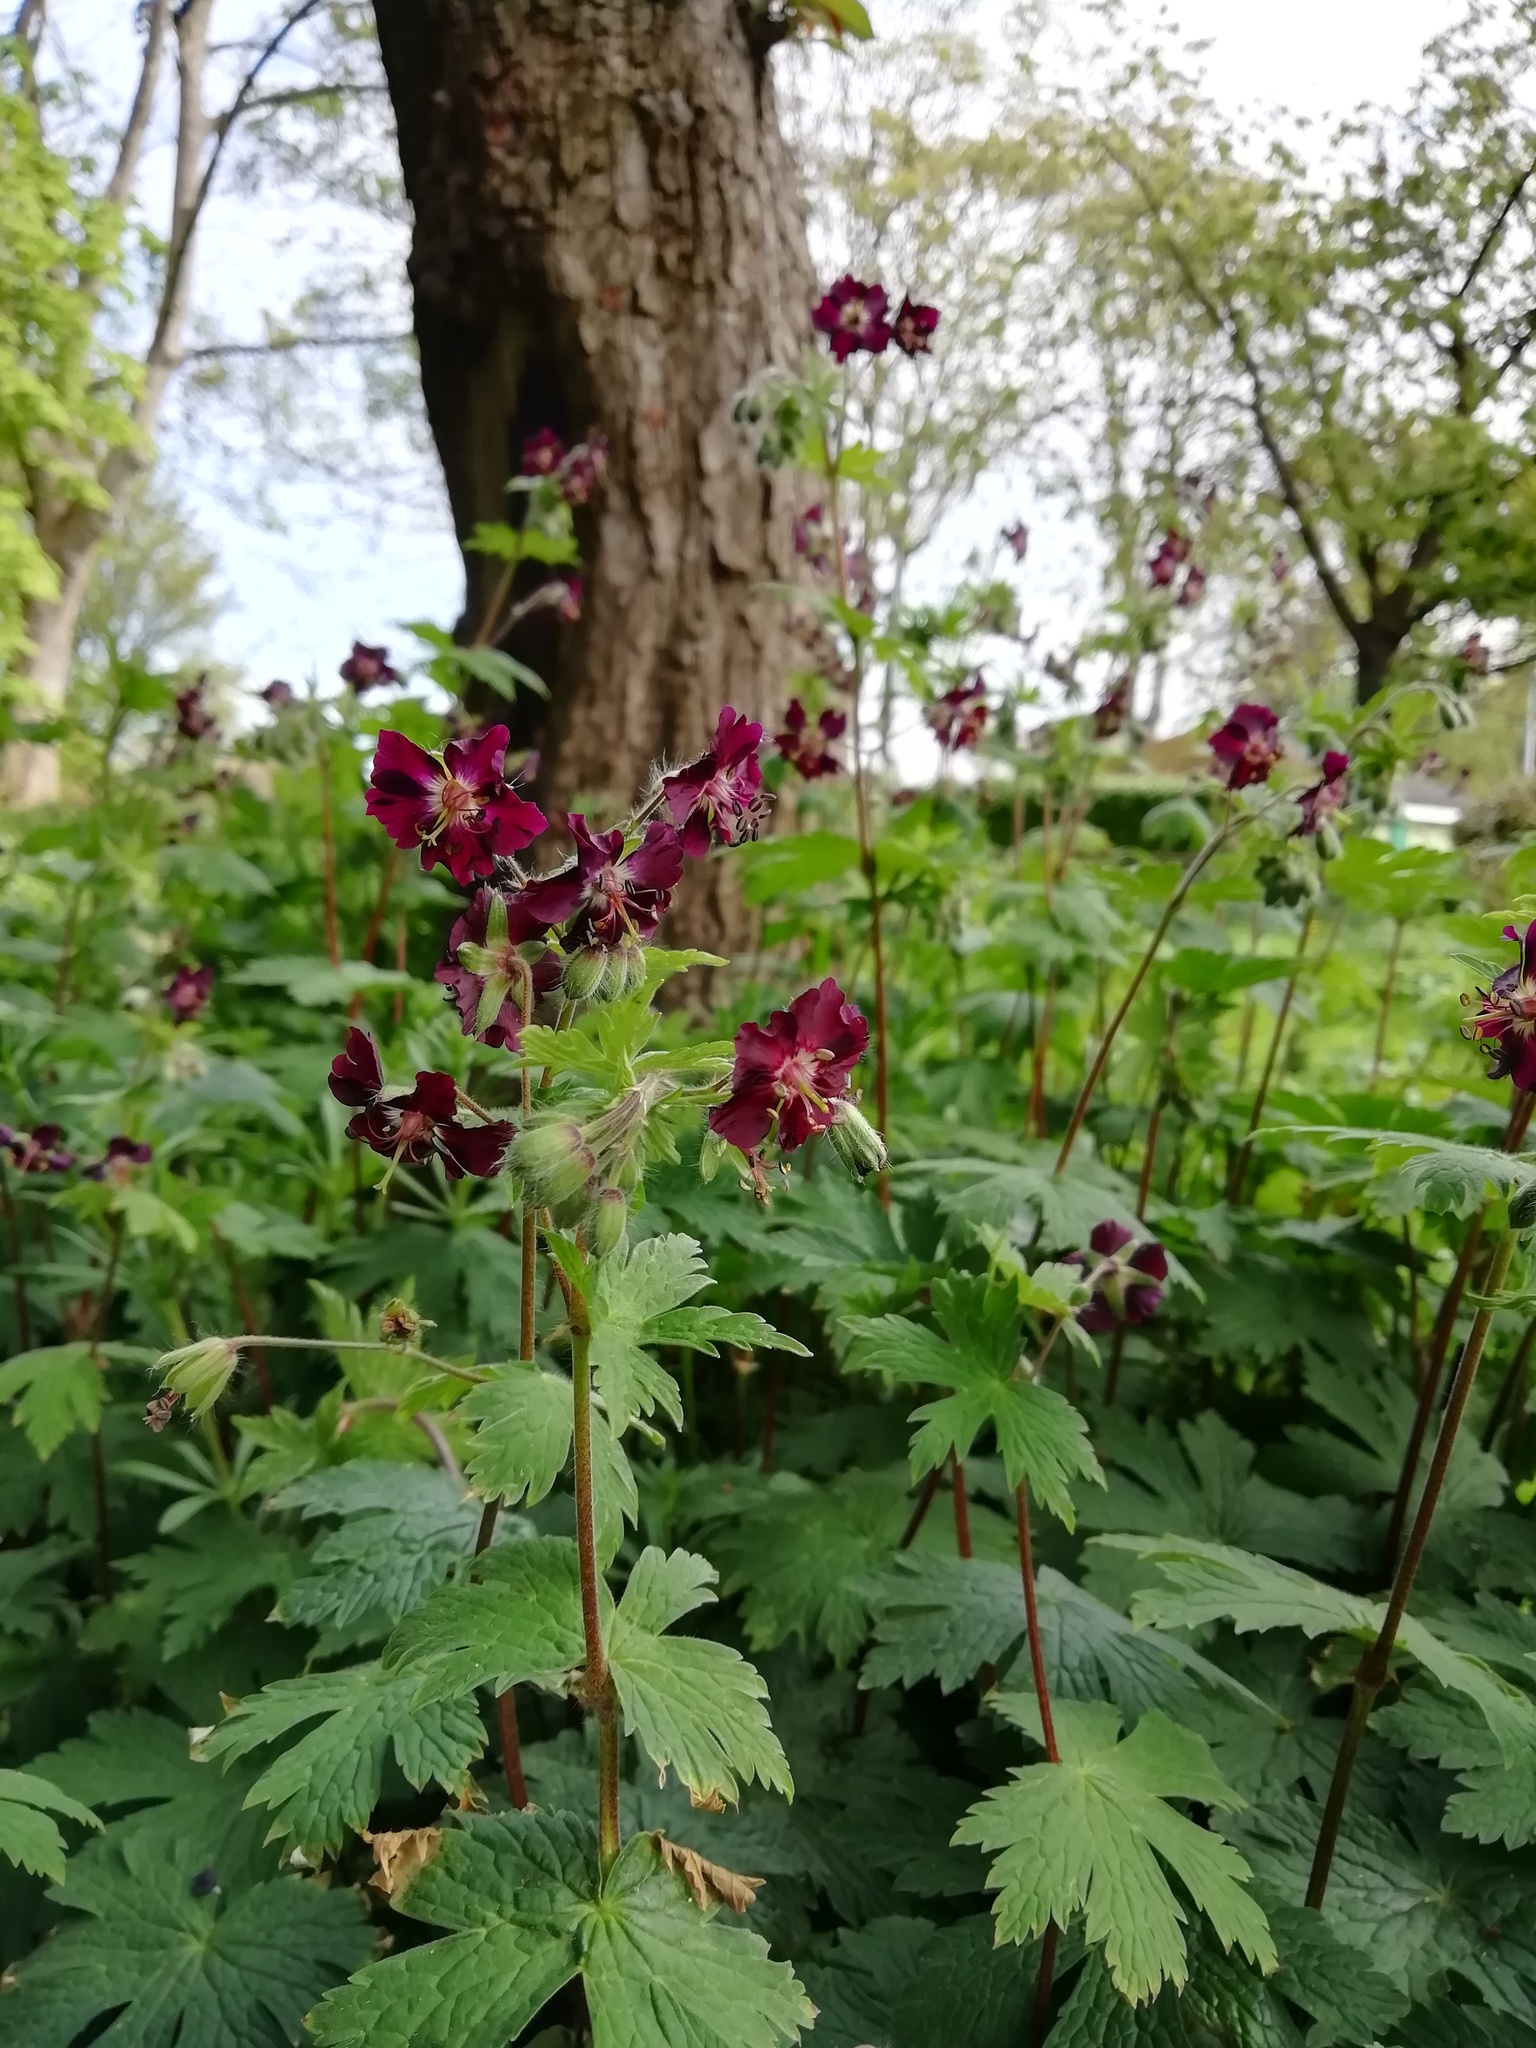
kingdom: Plantae
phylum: Tracheophyta
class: Magnoliopsida
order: Geraniales
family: Geraniaceae
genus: Geranium
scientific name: Geranium phaeum
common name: Dusky crane's-bill
